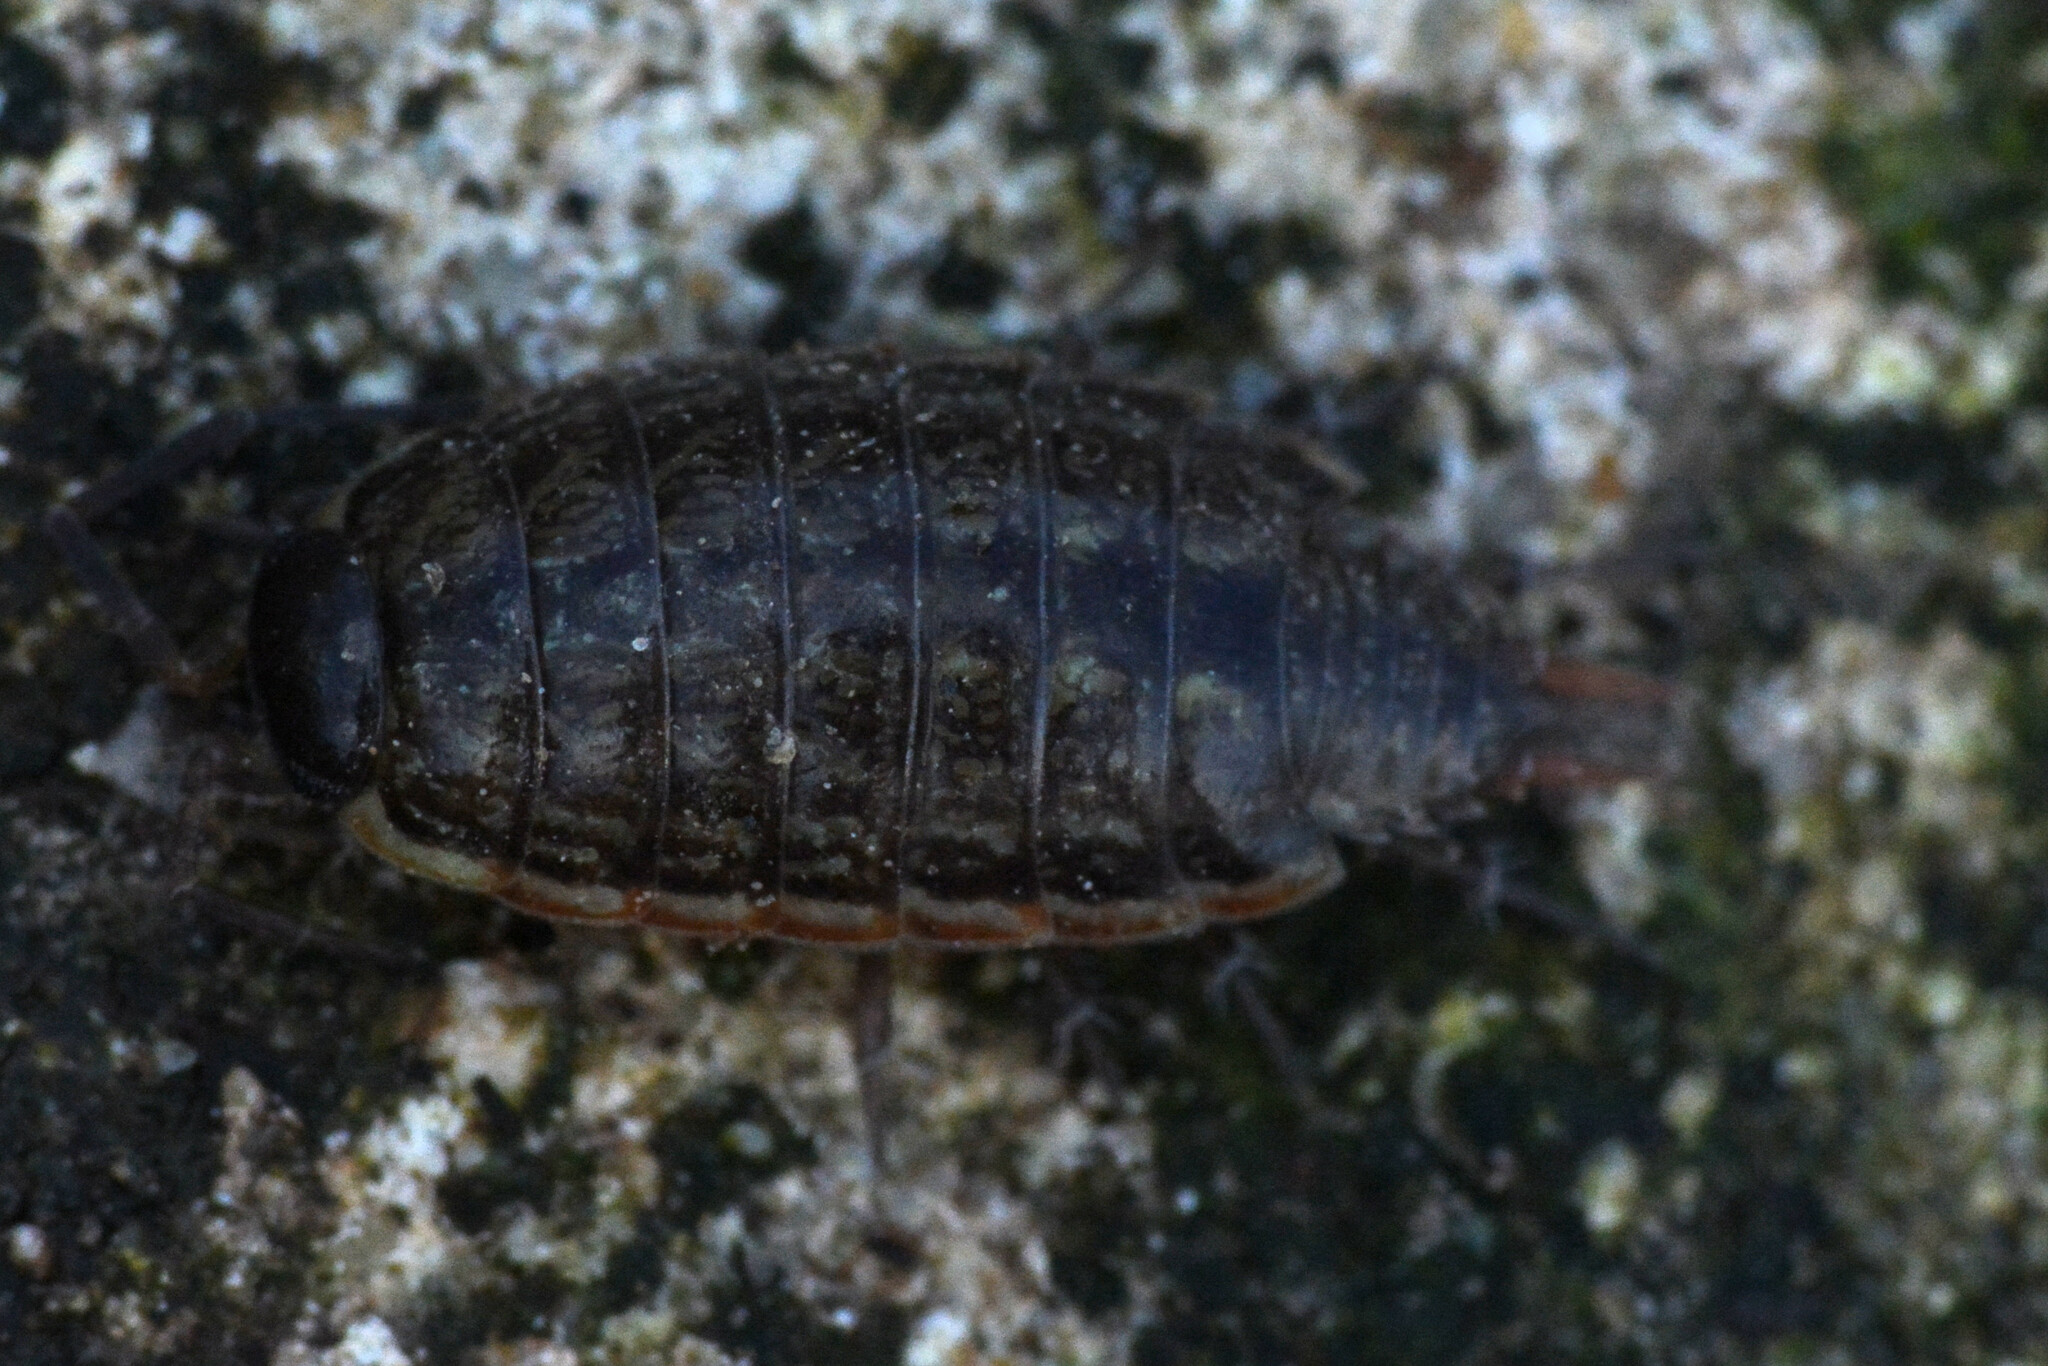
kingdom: Animalia
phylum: Arthropoda
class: Malacostraca
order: Isopoda
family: Philosciidae
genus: Philoscia
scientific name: Philoscia muscorum
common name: Common striped woodlouse
